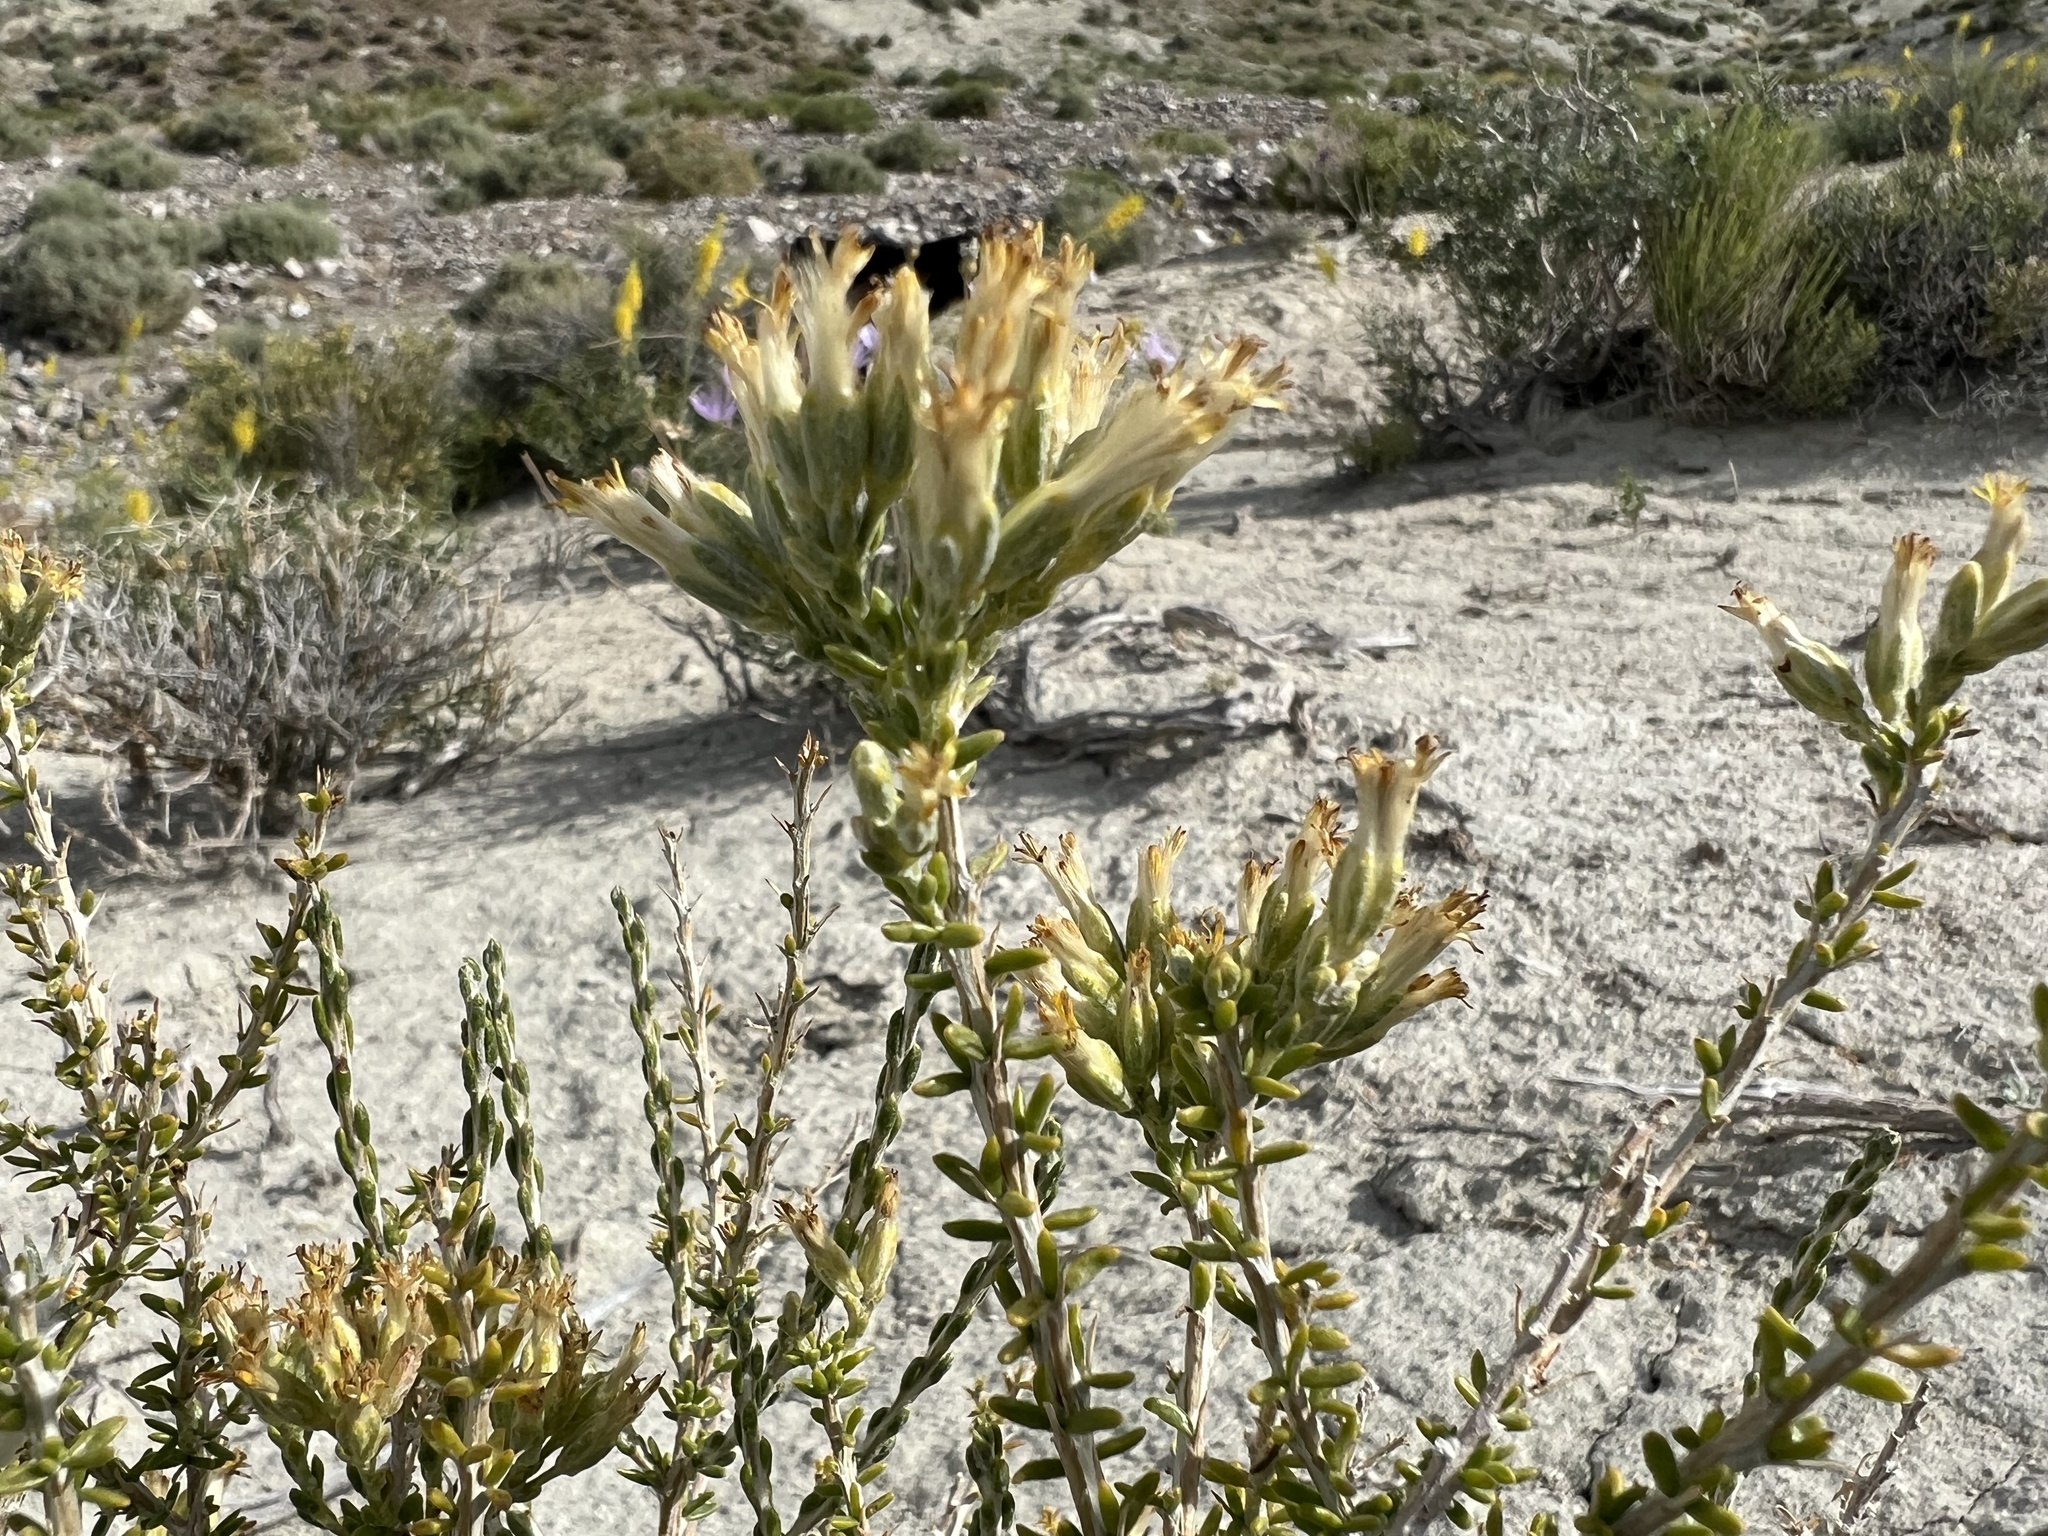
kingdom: Plantae
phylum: Tracheophyta
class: Magnoliopsida
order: Asterales
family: Asteraceae
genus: Tetradymia
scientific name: Tetradymia glabrata
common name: Smooth tetradymia
